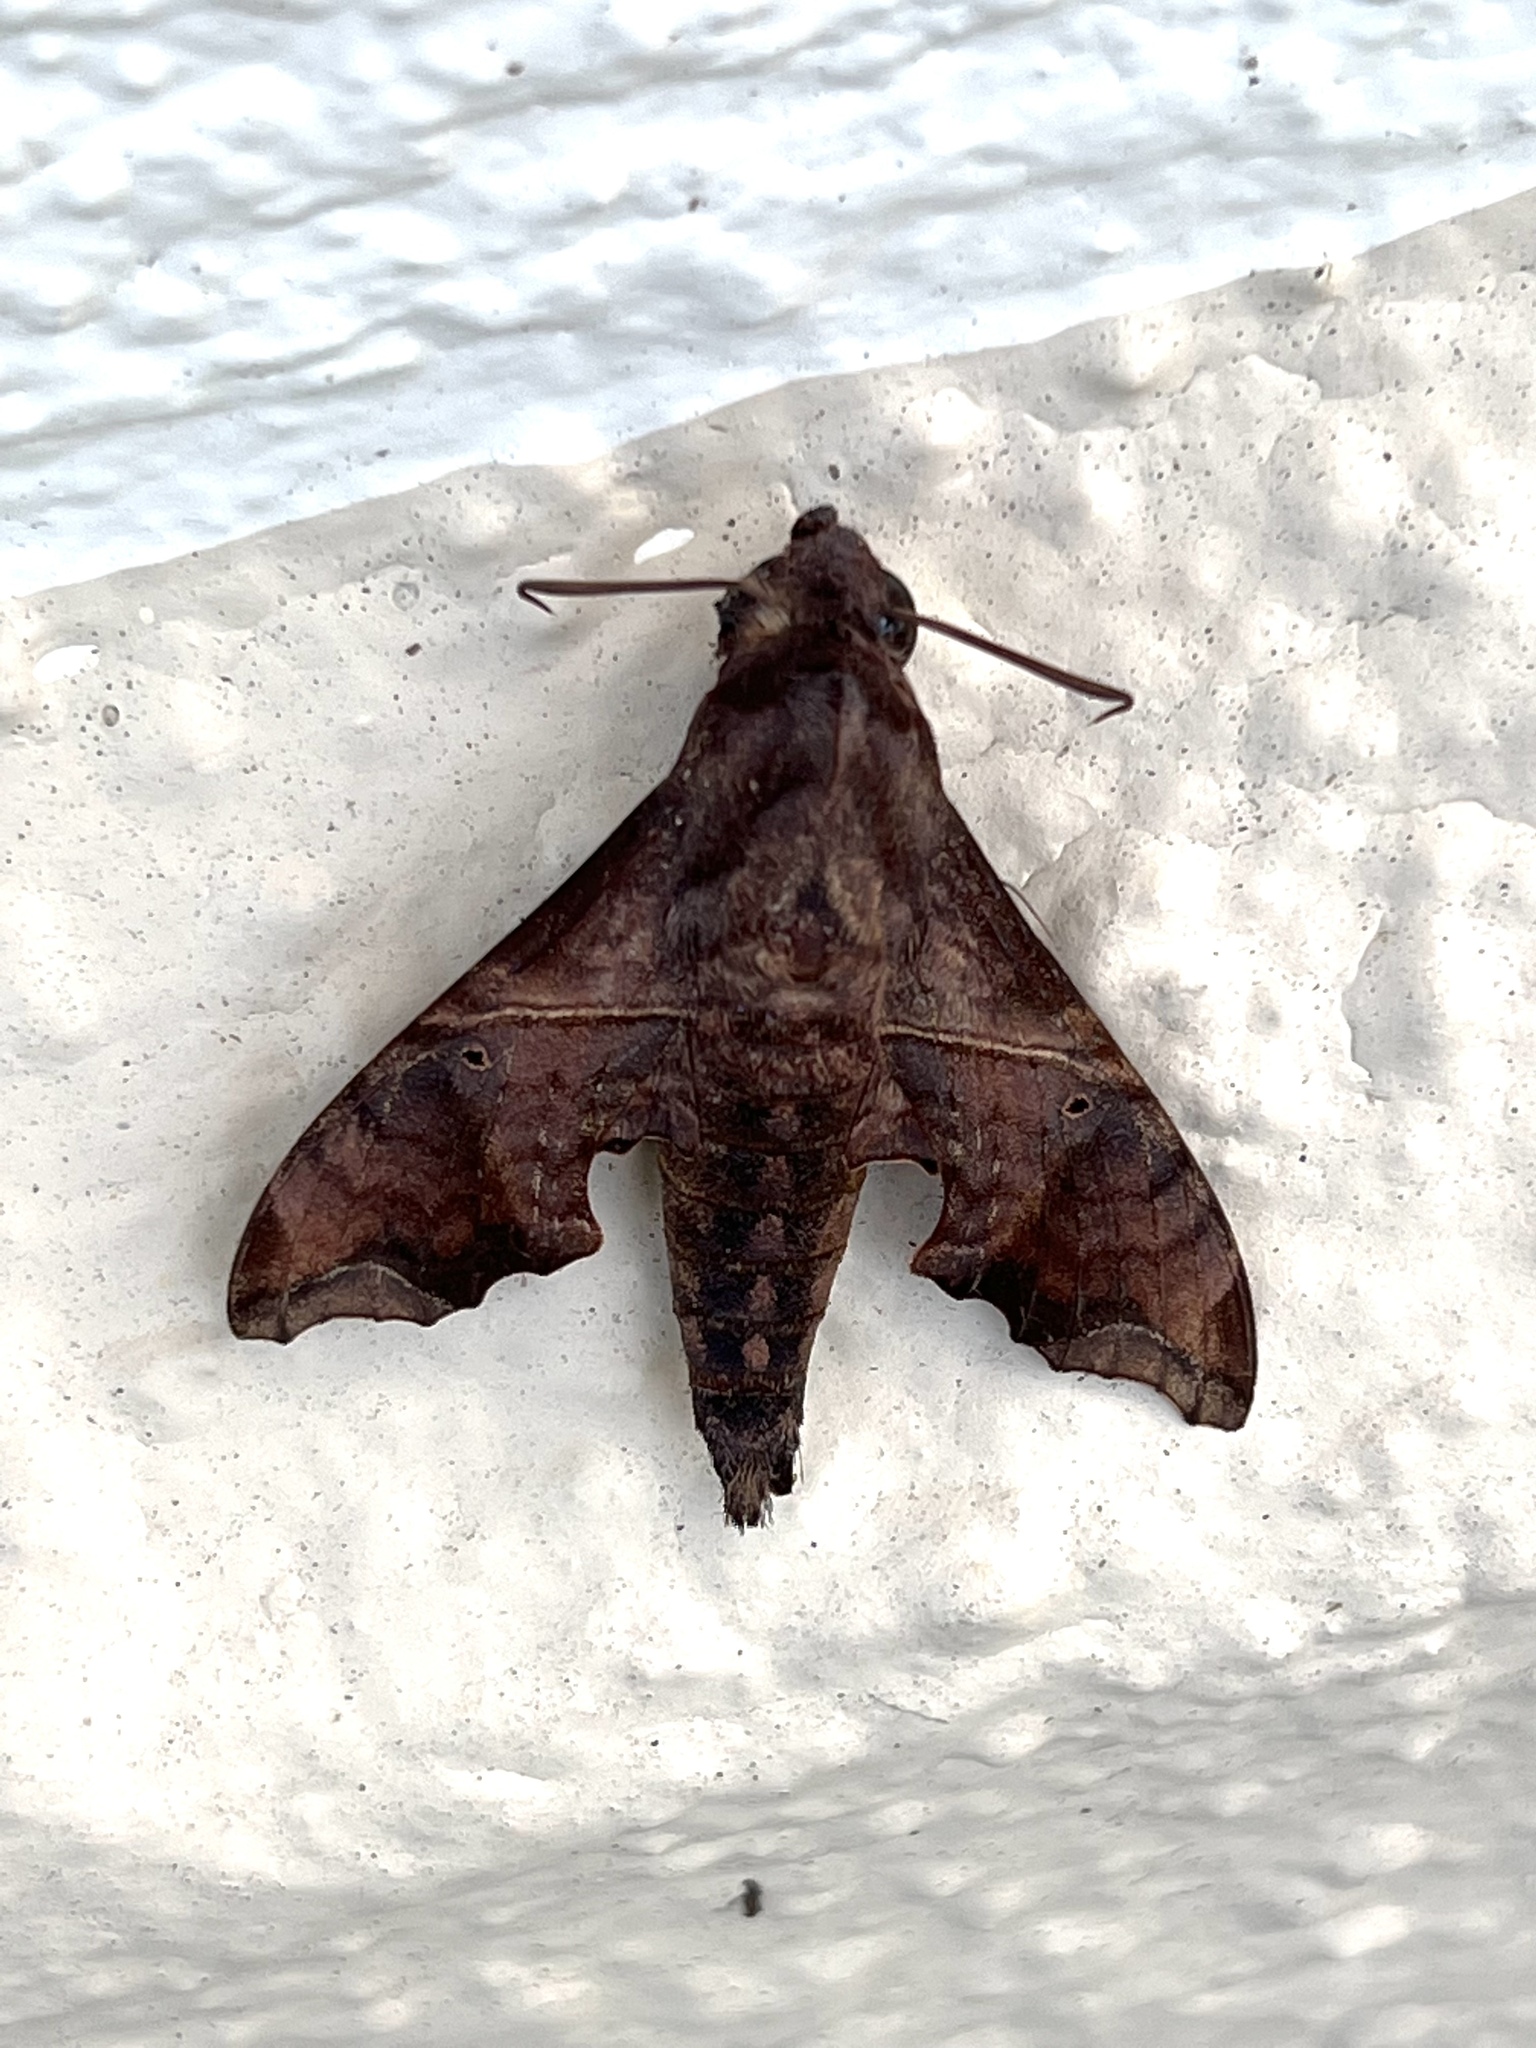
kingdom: Animalia
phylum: Arthropoda
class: Insecta
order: Lepidoptera
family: Sphingidae
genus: Enyo
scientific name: Enyo lugubris
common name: Mournful sphinx
